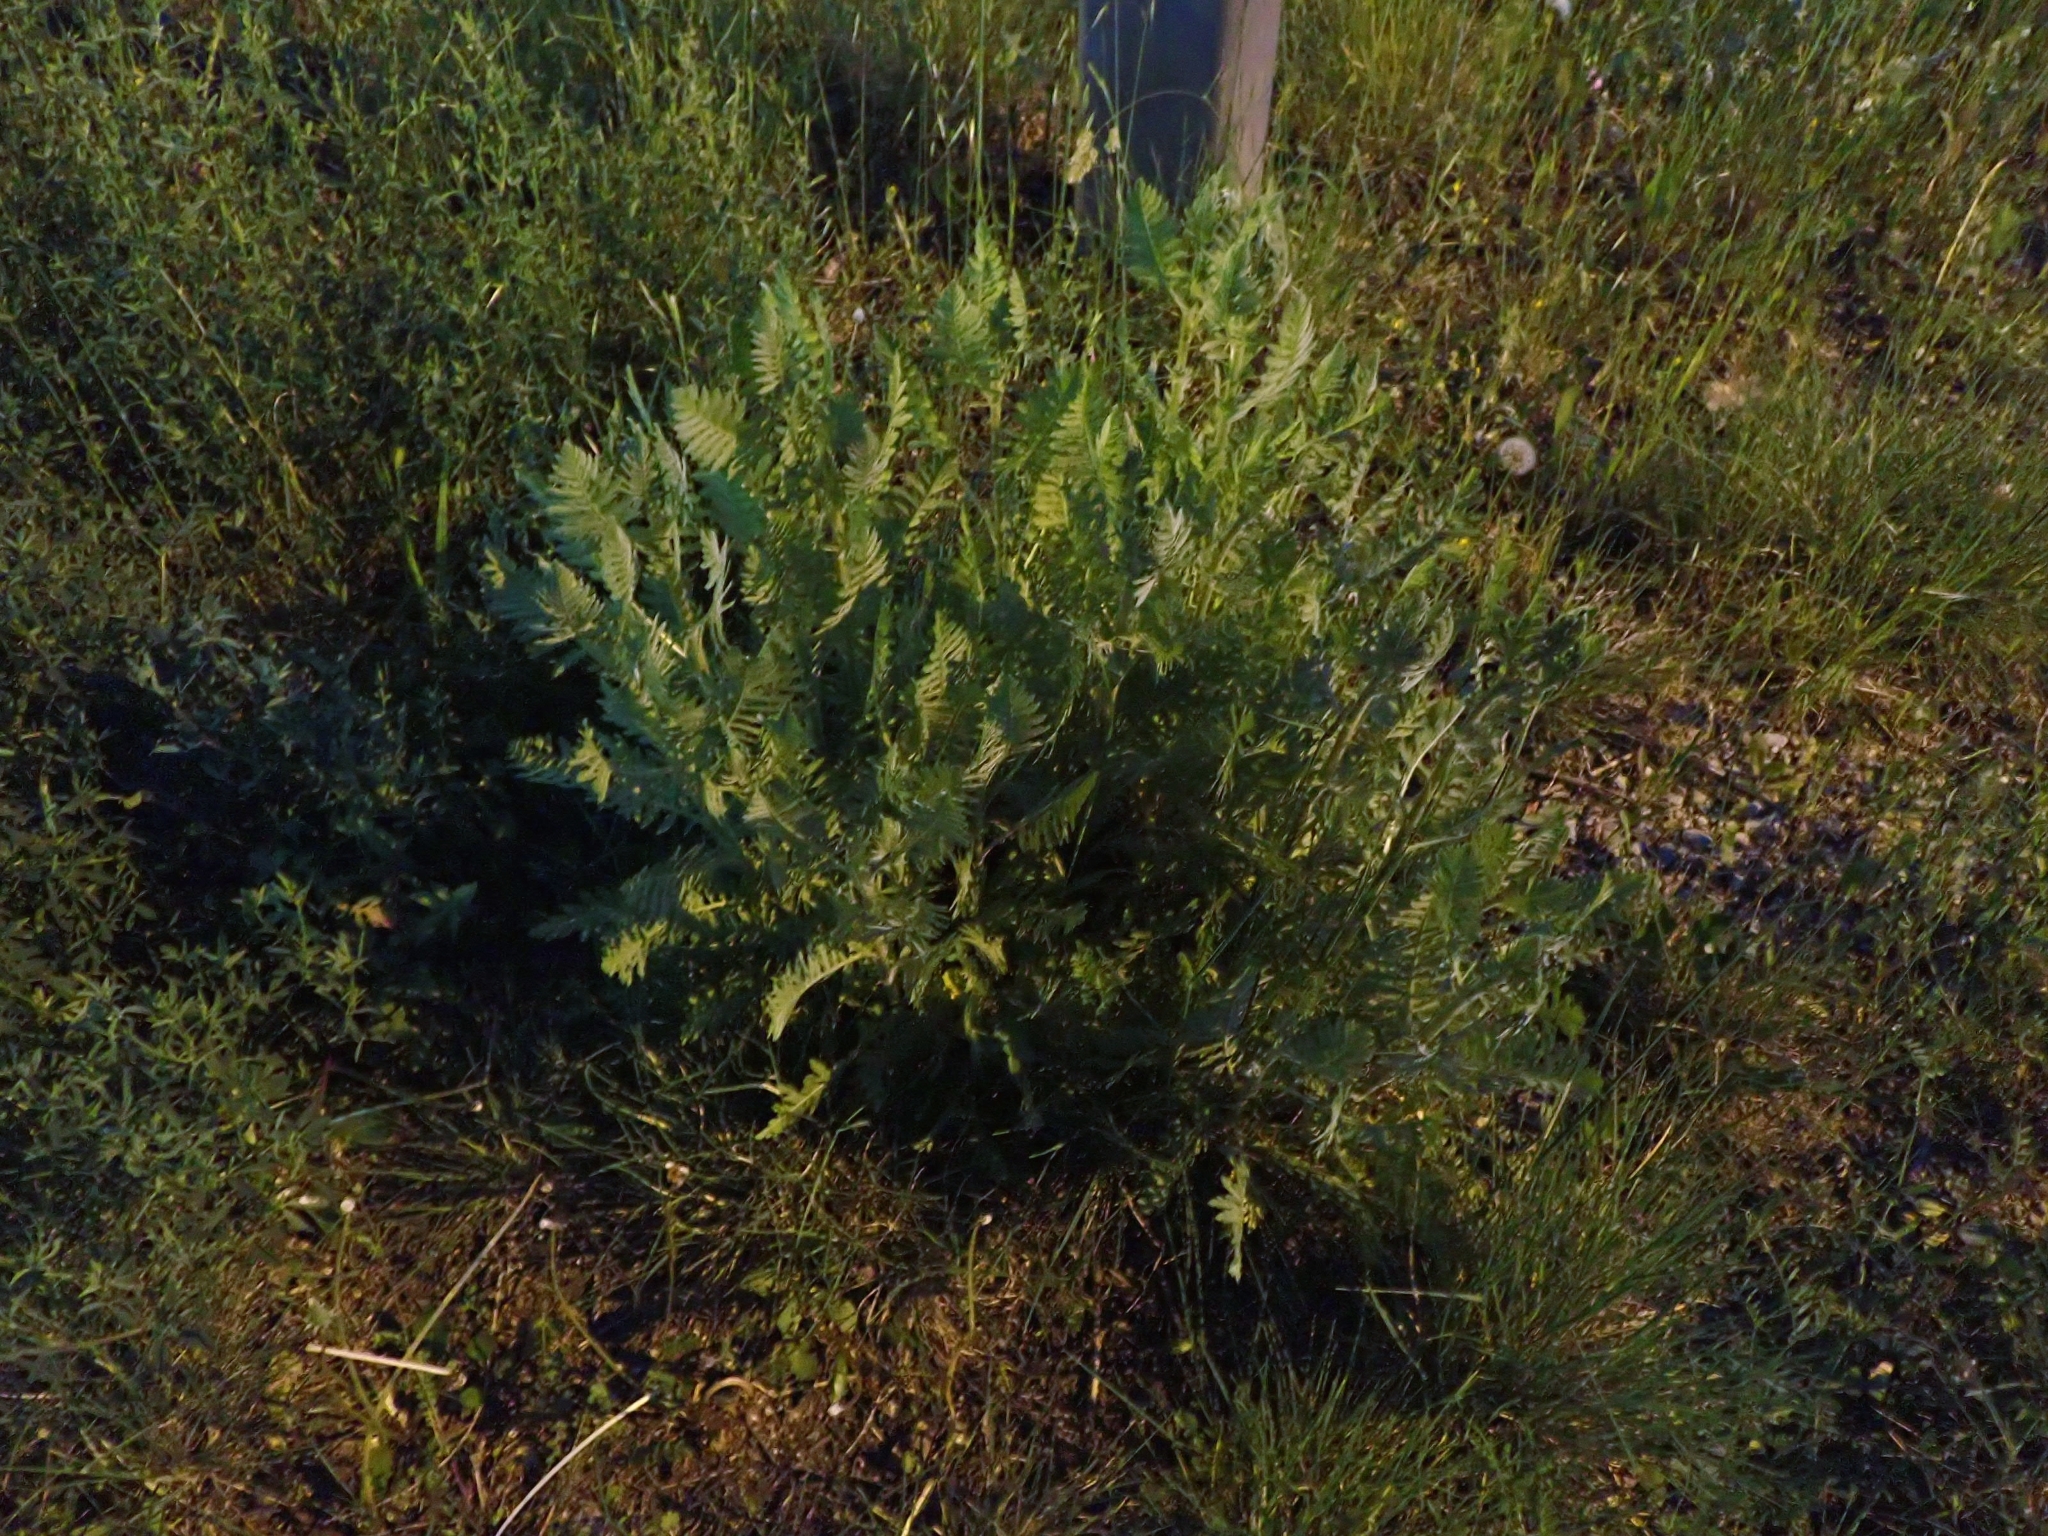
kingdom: Plantae
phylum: Tracheophyta
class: Magnoliopsida
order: Asterales
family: Asteraceae
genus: Achillea
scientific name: Achillea filipendulina
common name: Fernleaf yarrow
